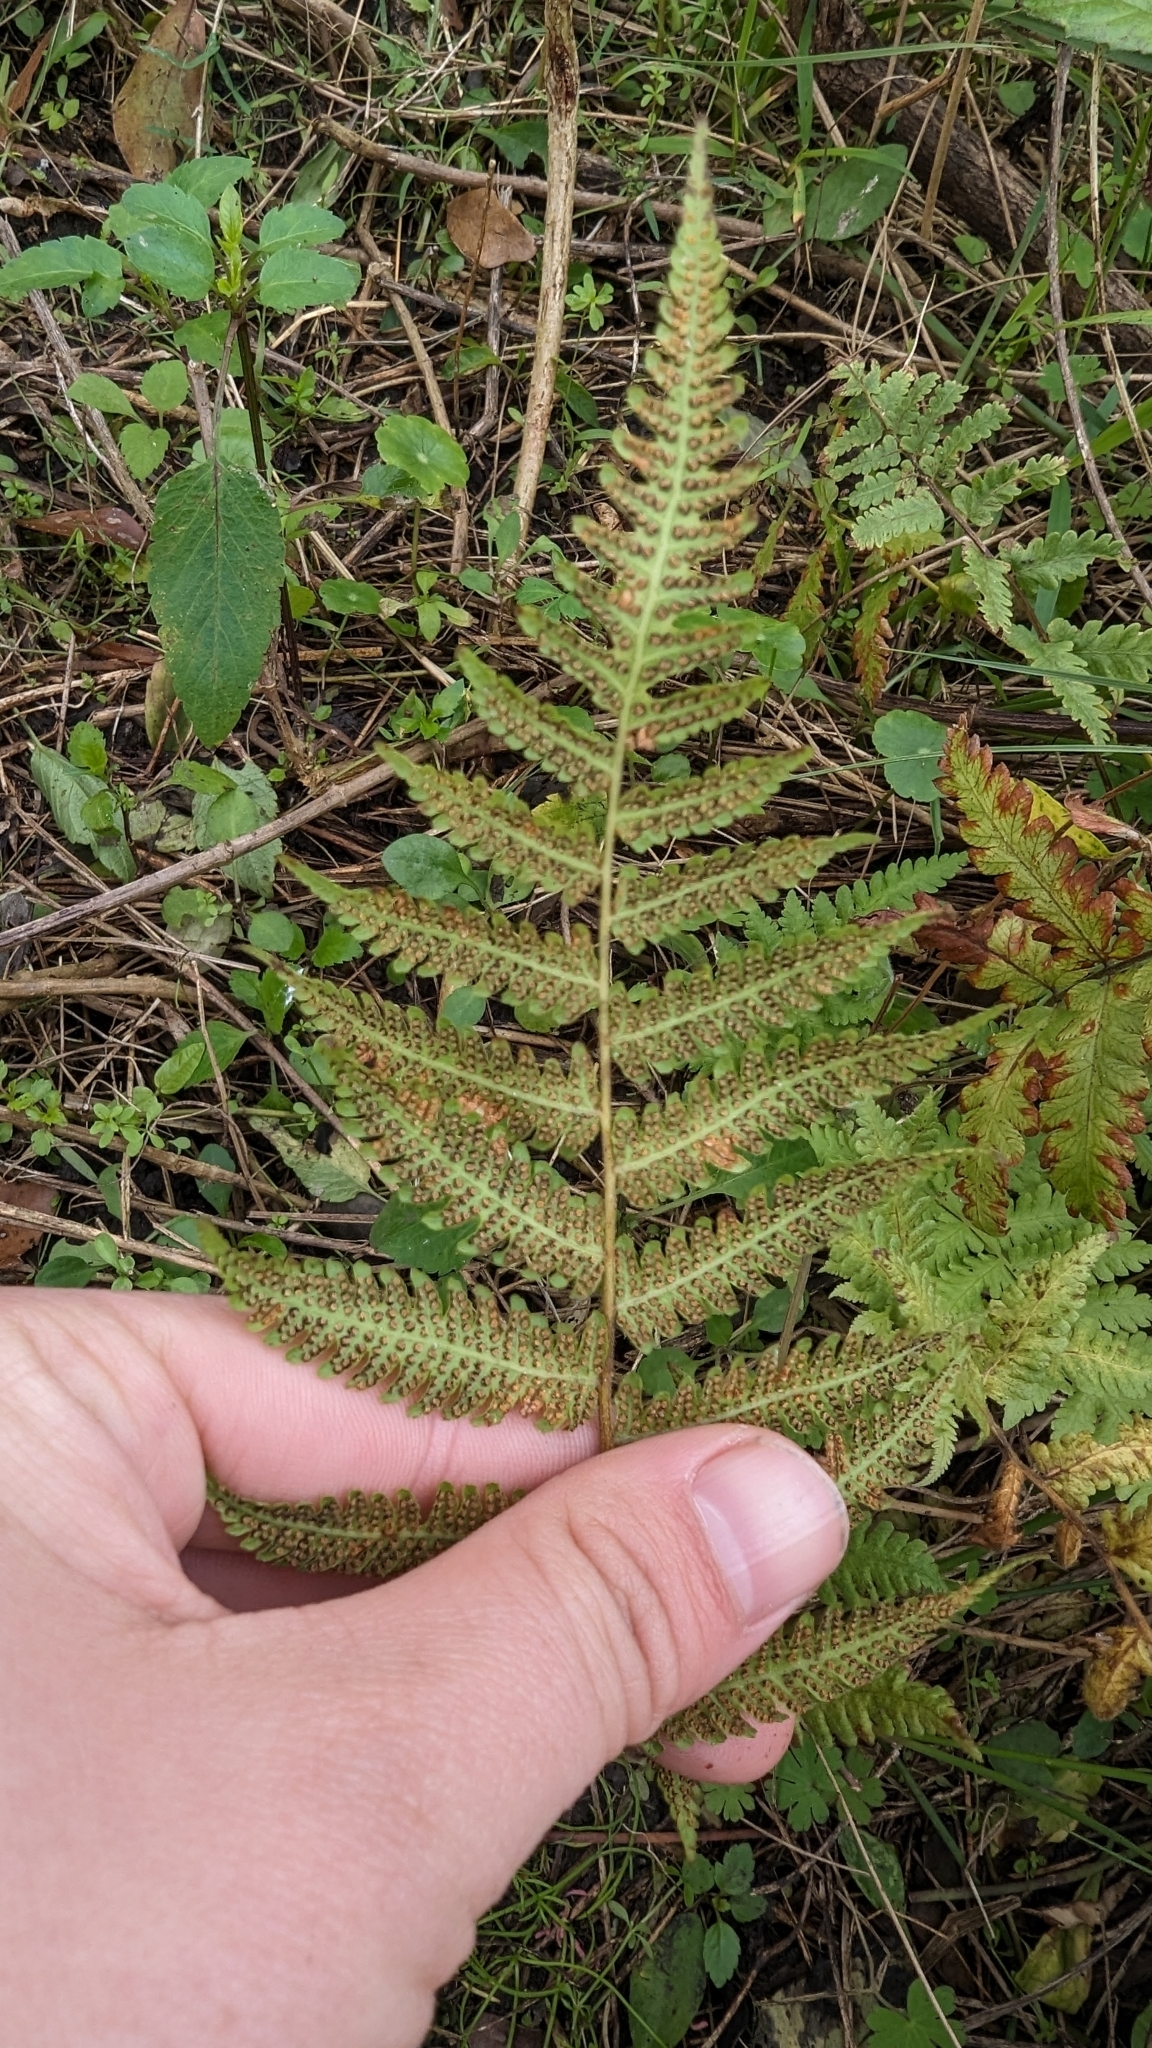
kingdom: Plantae
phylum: Tracheophyta
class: Polypodiopsida
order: Polypodiales
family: Thelypteridaceae
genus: Christella
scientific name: Christella dentata
